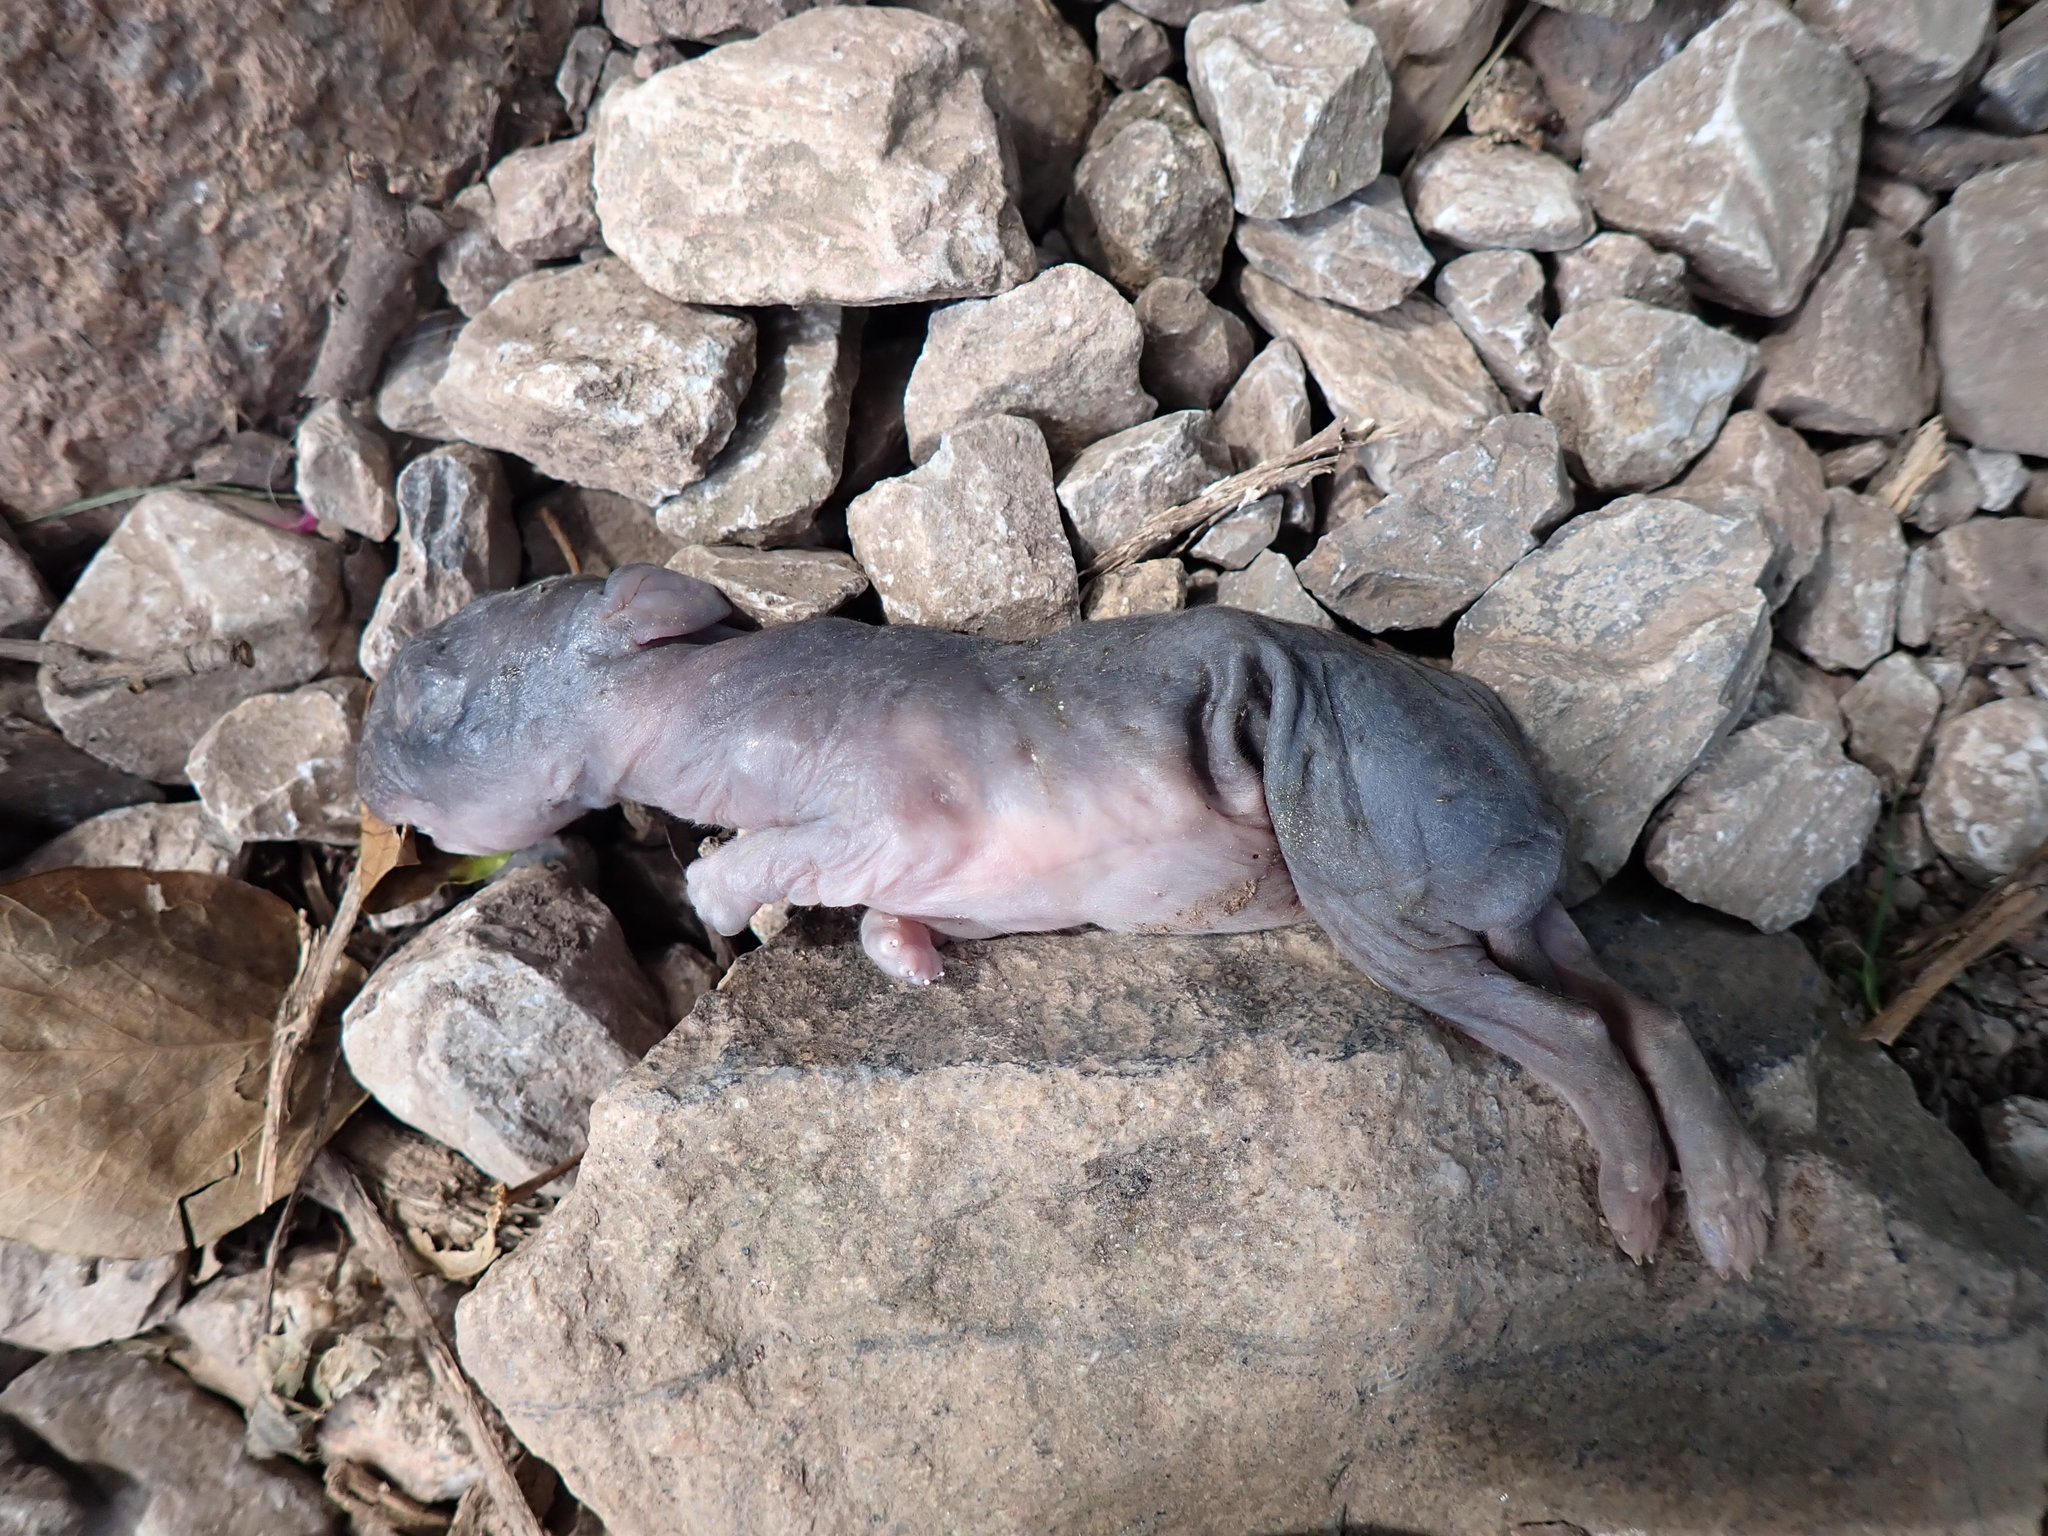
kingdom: Animalia
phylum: Chordata
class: Mammalia
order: Lagomorpha
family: Leporidae
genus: Oryctolagus
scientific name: Oryctolagus cuniculus
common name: European rabbit
